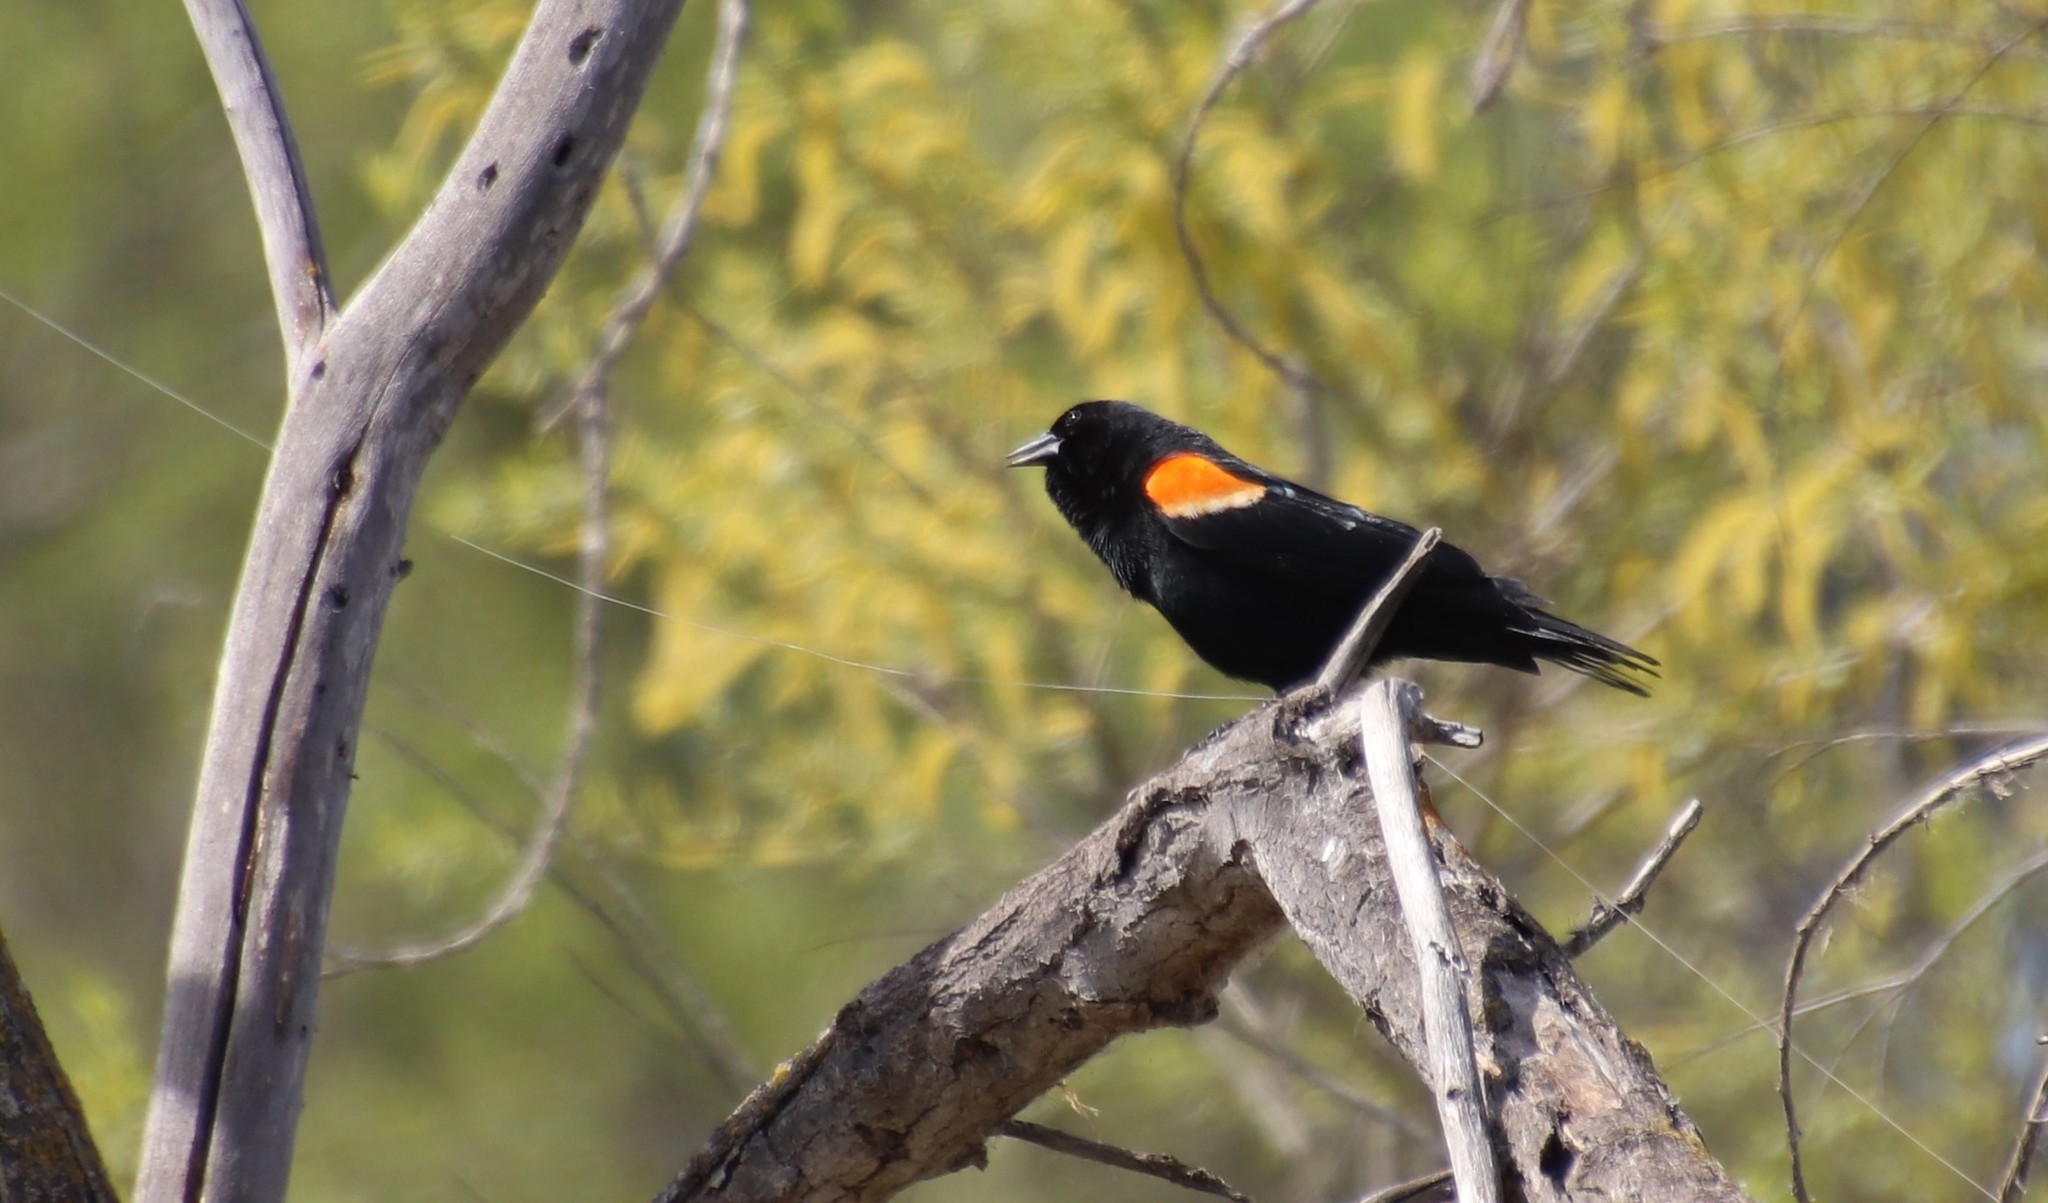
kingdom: Animalia
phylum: Chordata
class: Aves
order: Passeriformes
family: Icteridae
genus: Agelaius
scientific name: Agelaius phoeniceus
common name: Red-winged blackbird
